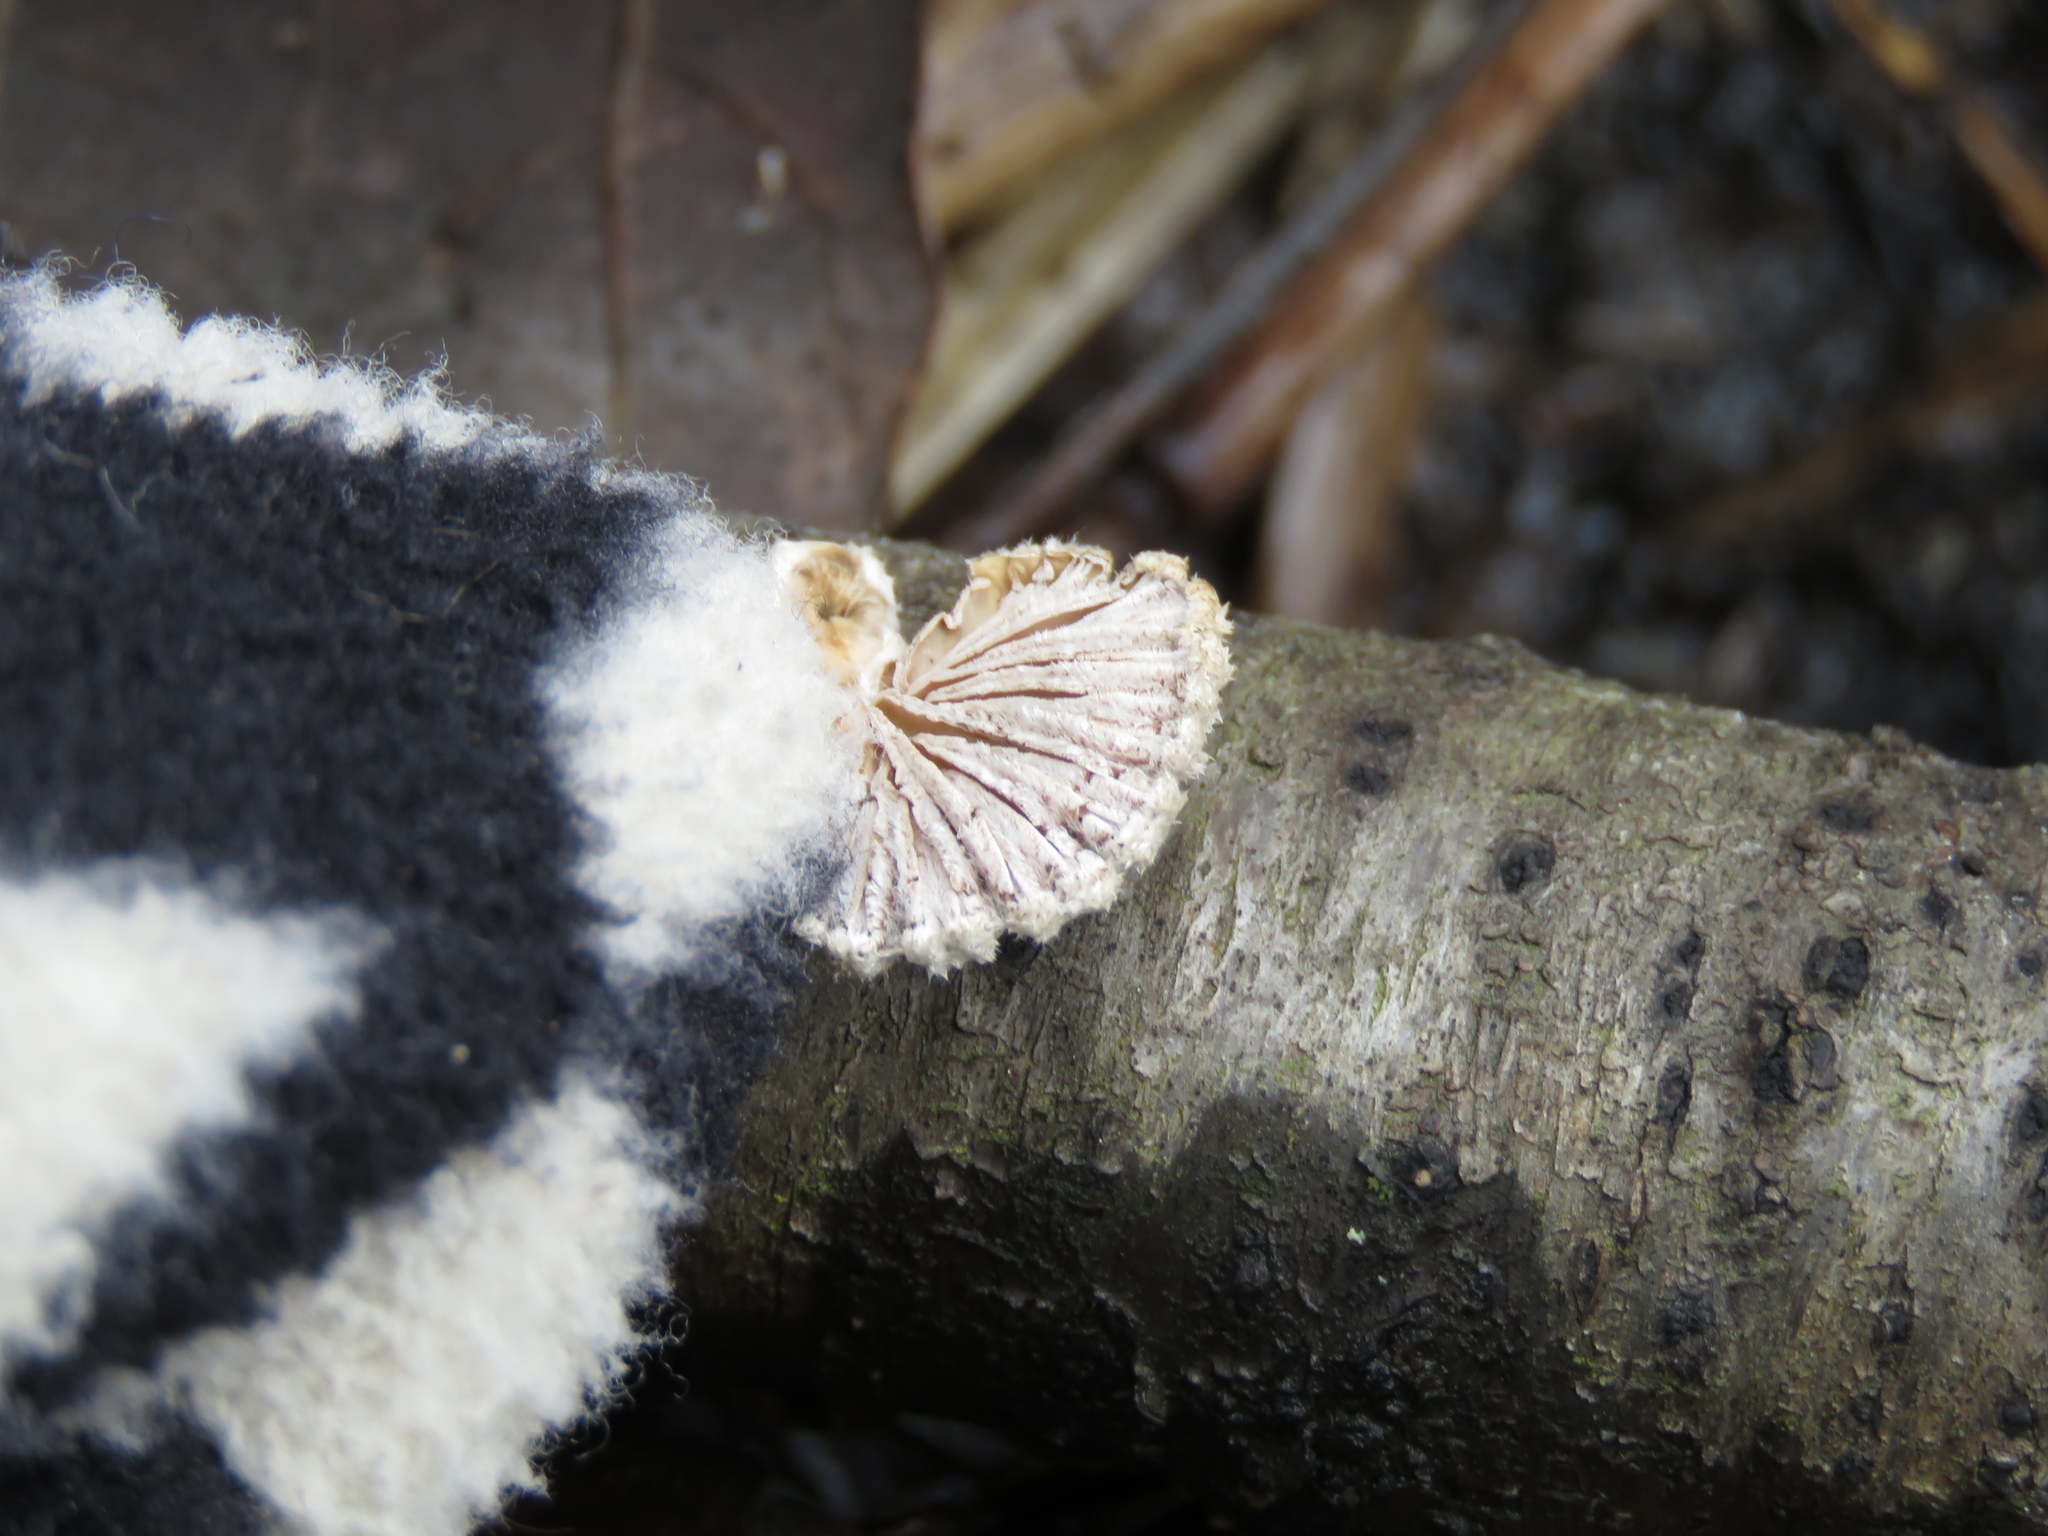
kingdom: Fungi
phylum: Basidiomycota
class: Agaricomycetes
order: Agaricales
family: Schizophyllaceae
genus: Schizophyllum
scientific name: Schizophyllum commune
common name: Common porecrust
